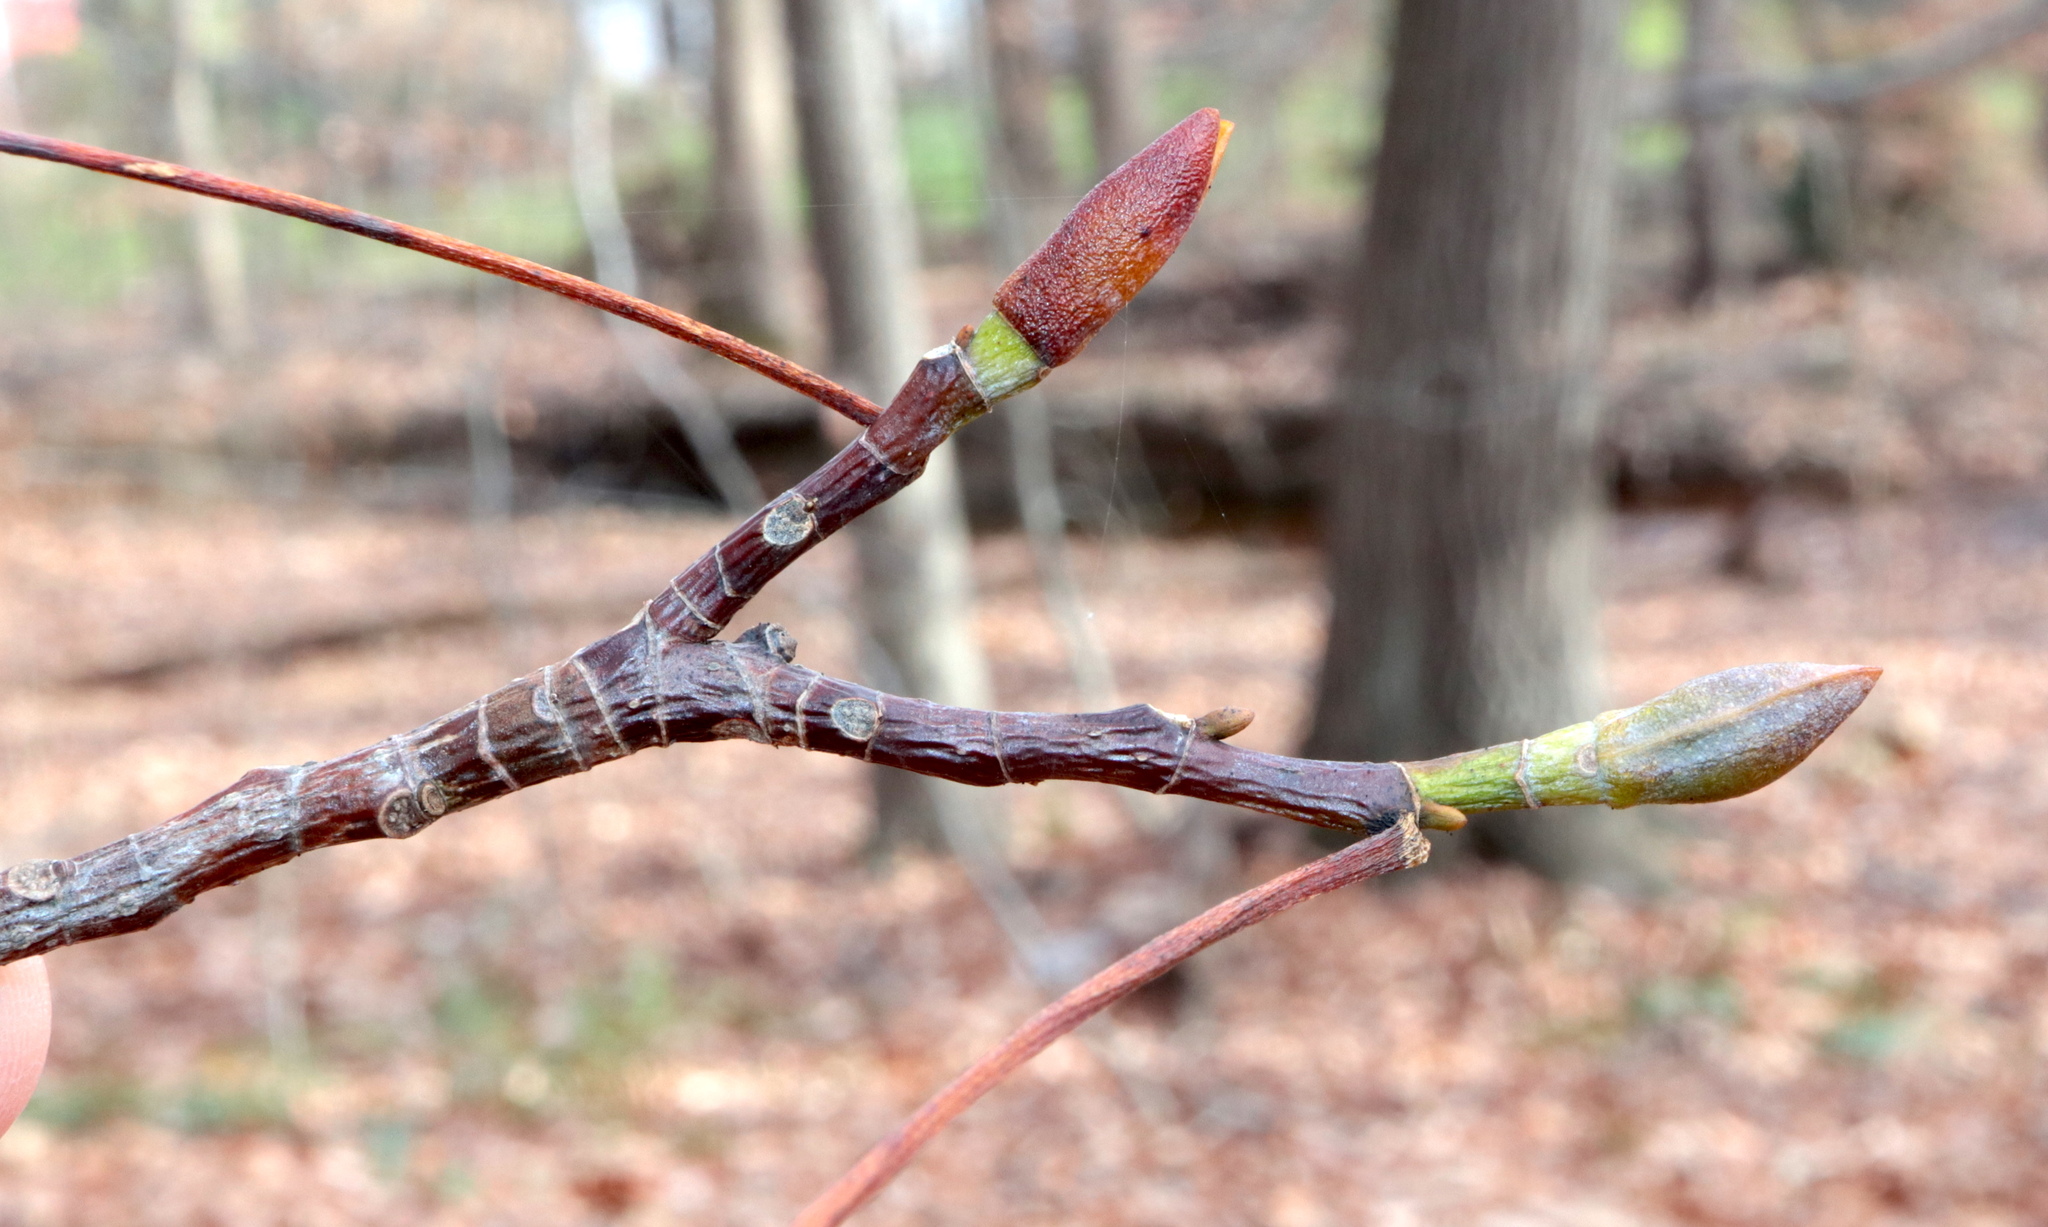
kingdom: Plantae
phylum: Tracheophyta
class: Magnoliopsida
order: Magnoliales
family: Magnoliaceae
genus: Liriodendron
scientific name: Liriodendron tulipifera
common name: Tulip tree
